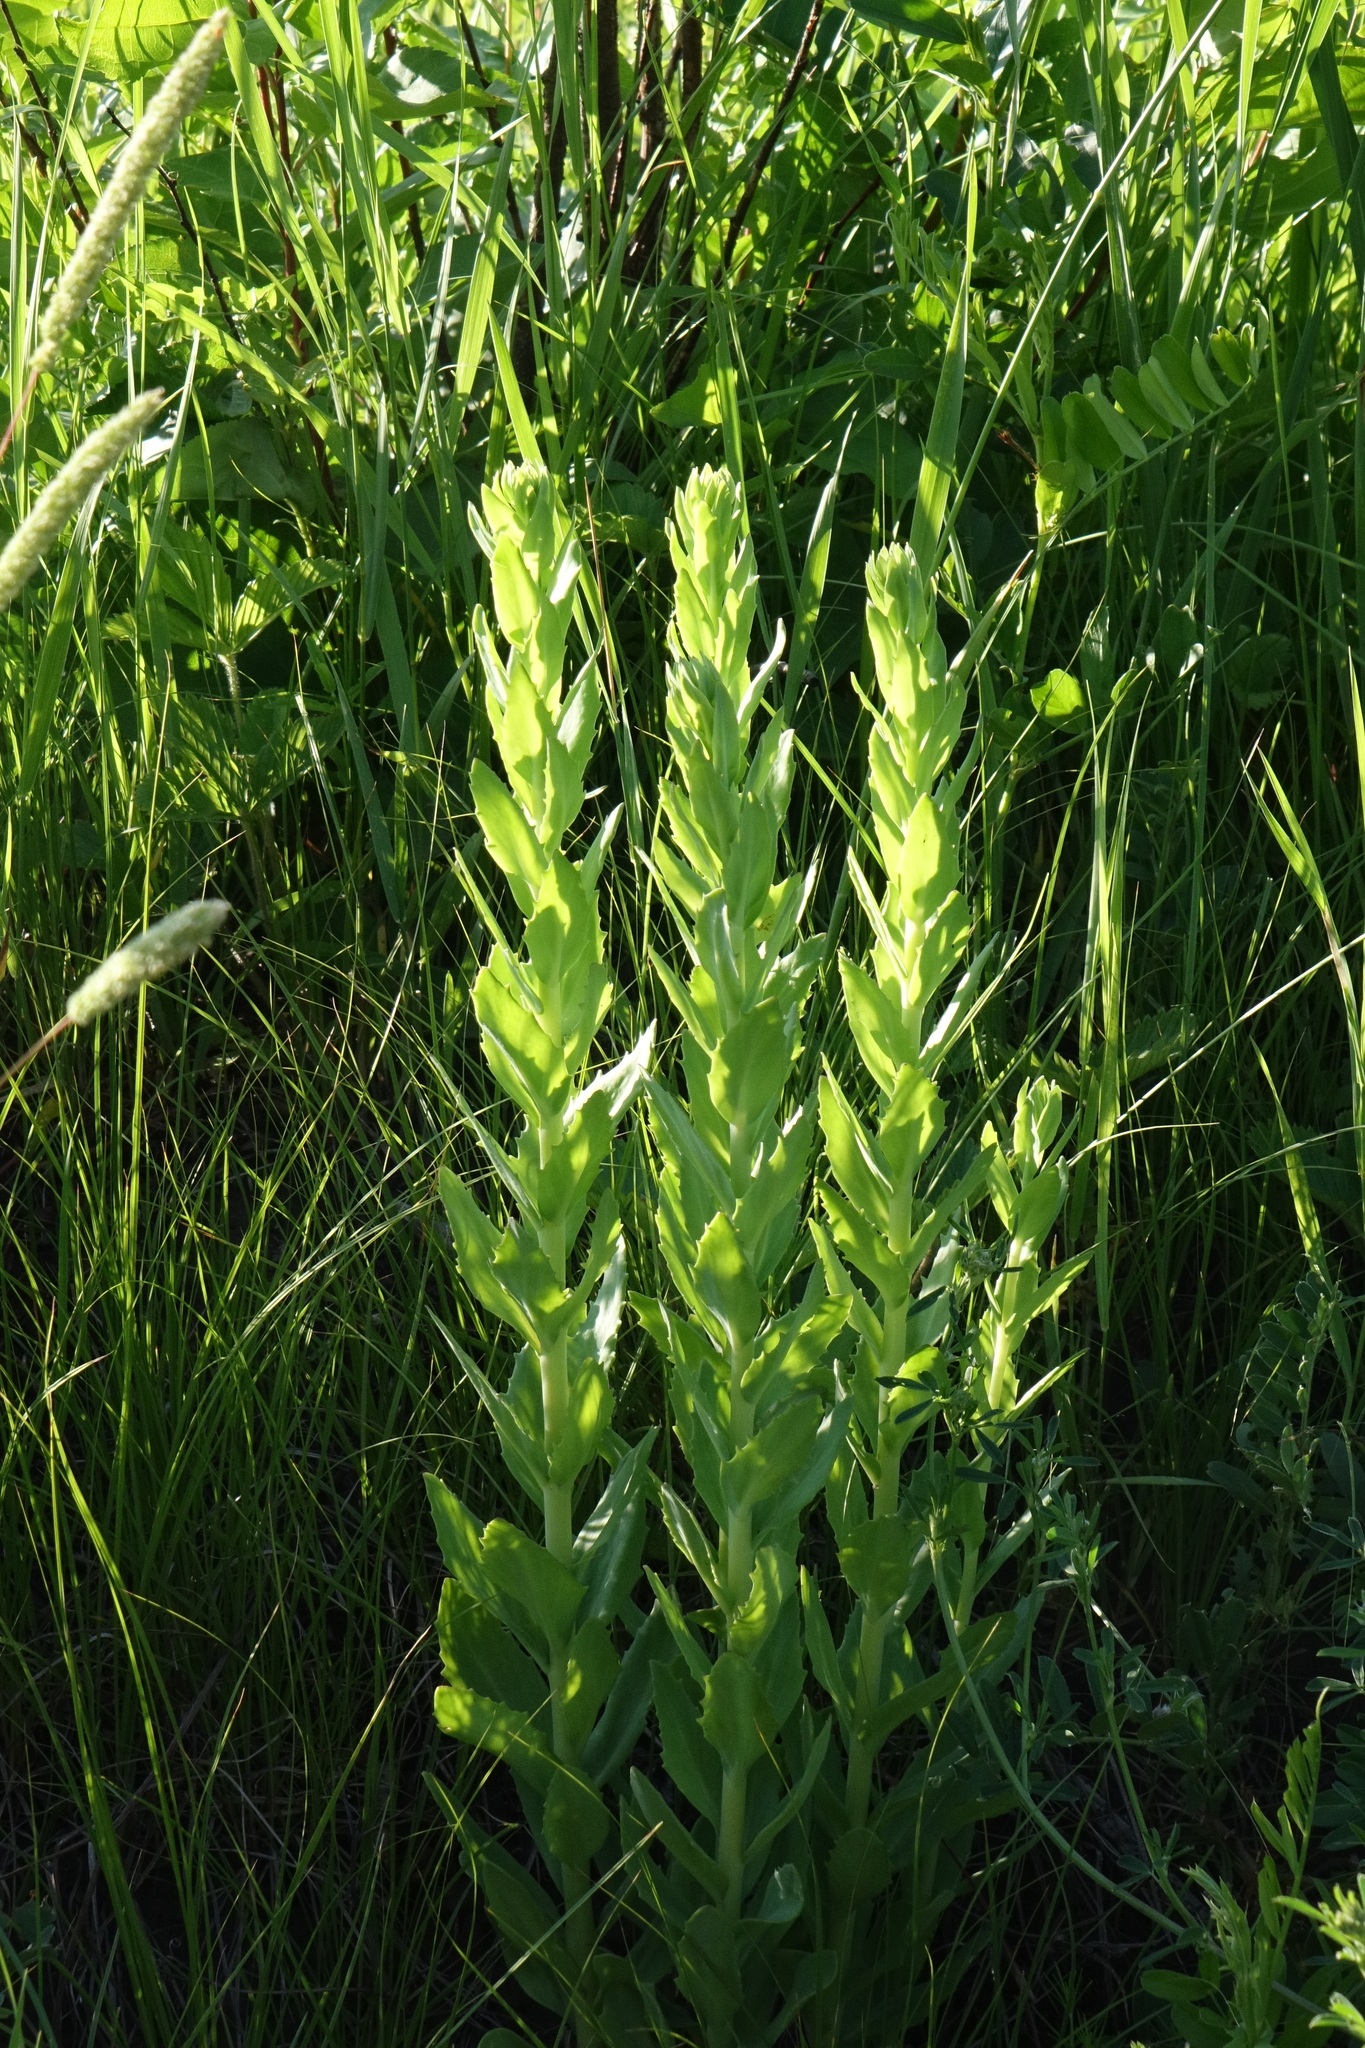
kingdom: Plantae
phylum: Tracheophyta
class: Magnoliopsida
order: Saxifragales
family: Crassulaceae
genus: Hylotelephium
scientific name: Hylotelephium telephium
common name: Live-forever
